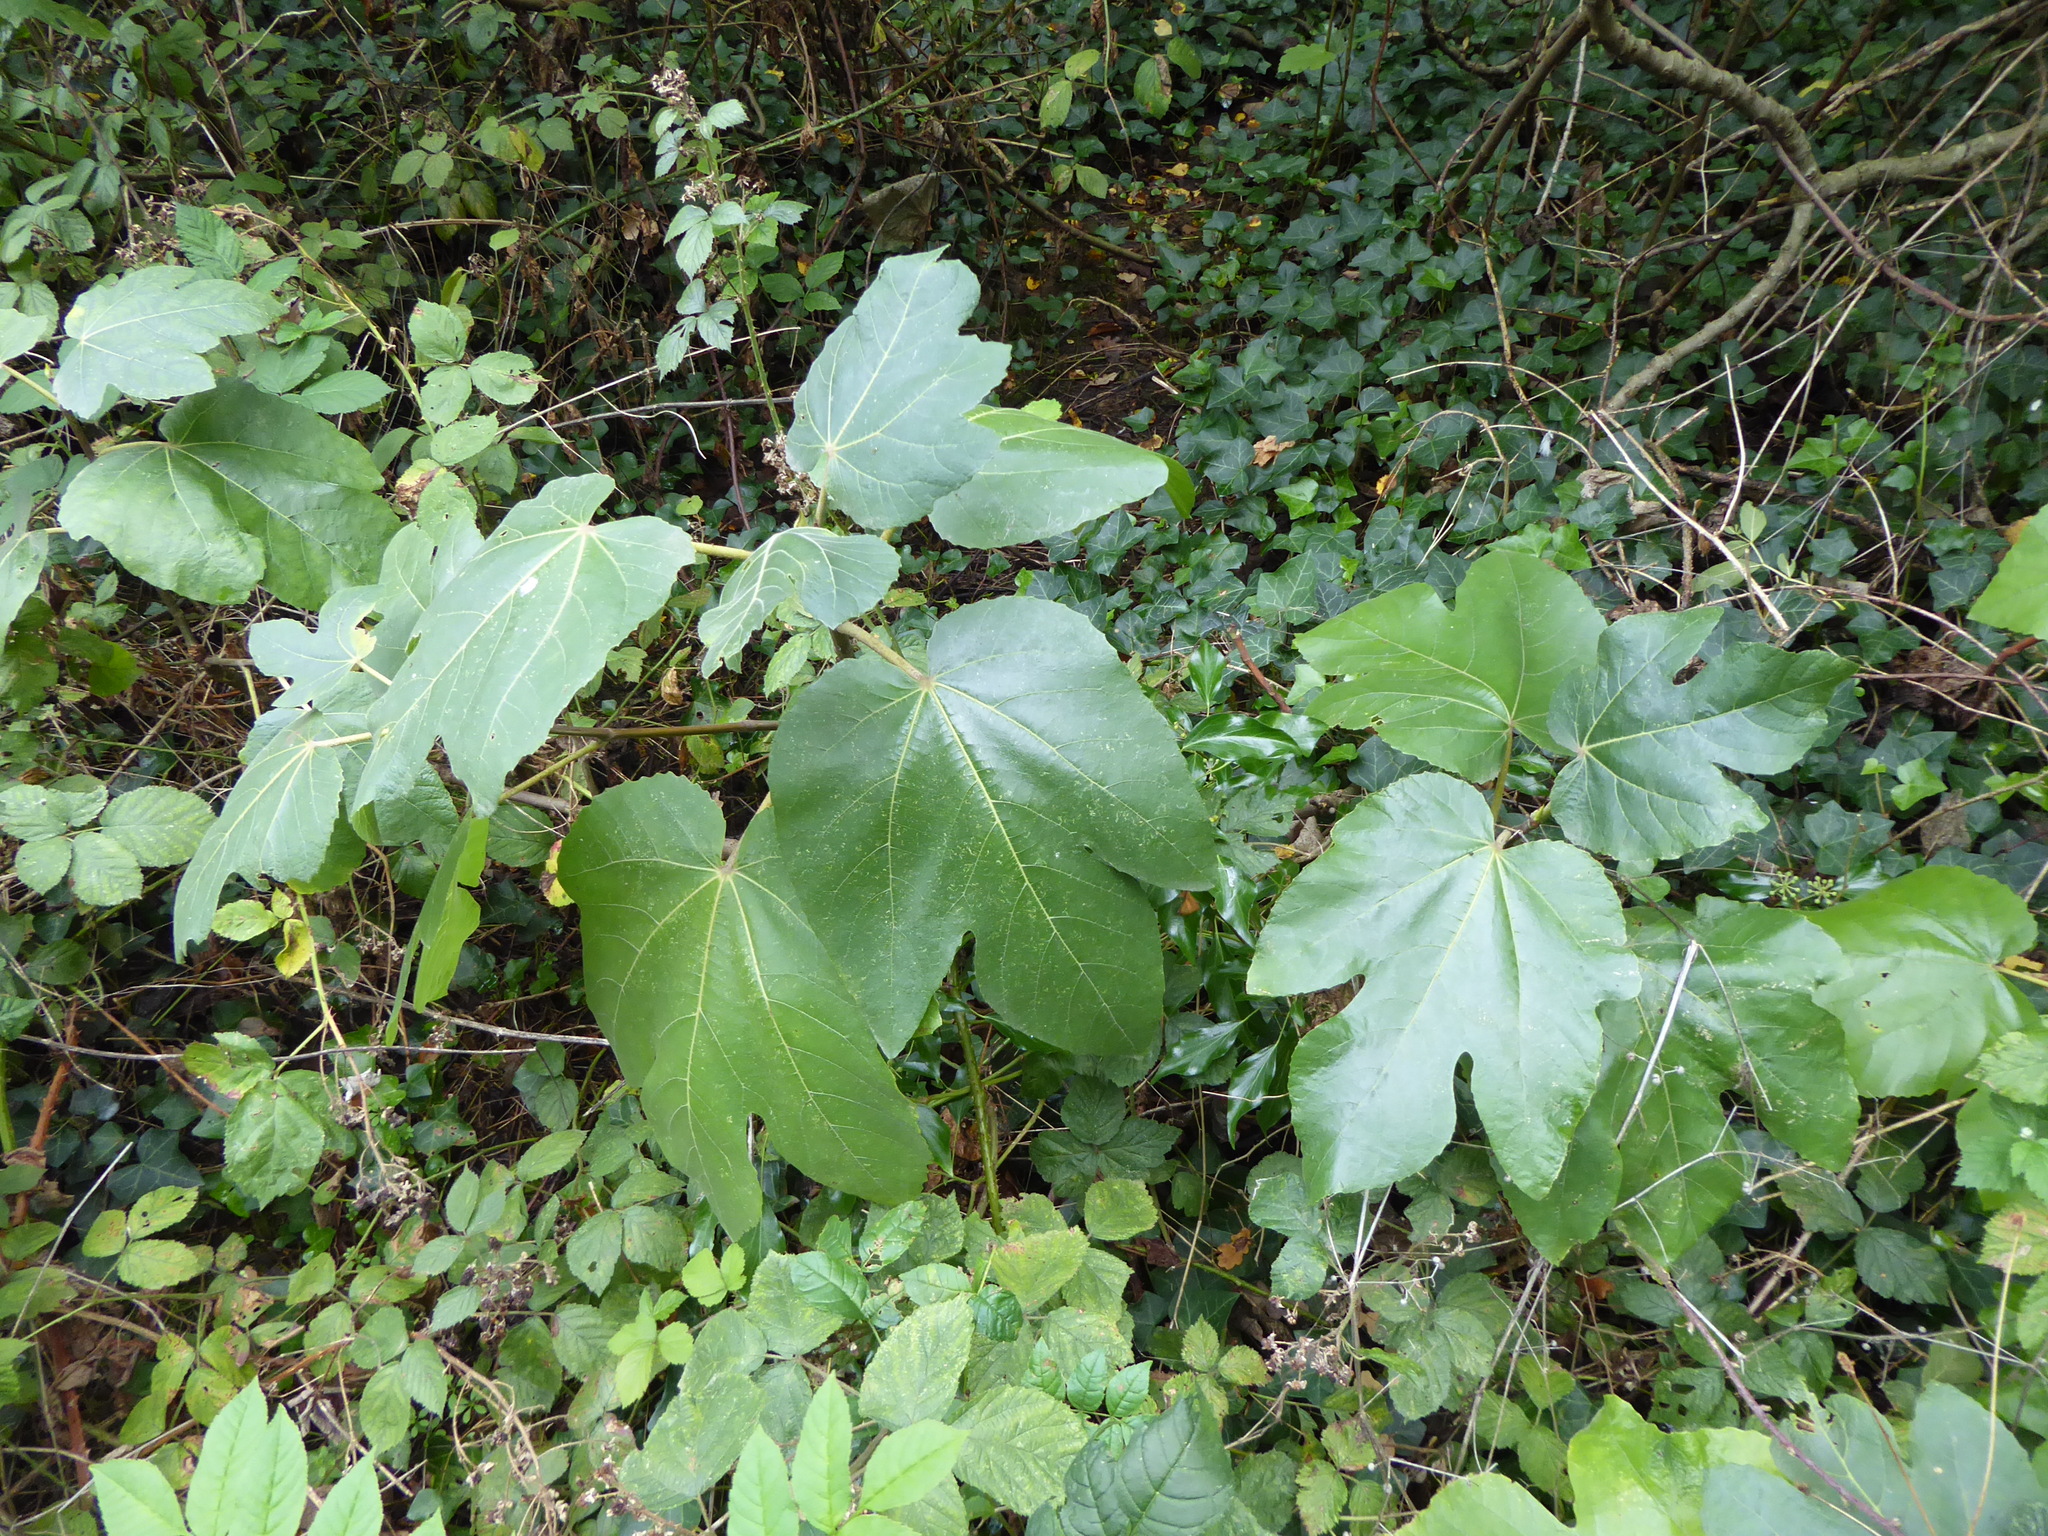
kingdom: Plantae
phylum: Tracheophyta
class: Magnoliopsida
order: Rosales
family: Moraceae
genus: Ficus
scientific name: Ficus carica
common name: Fig
